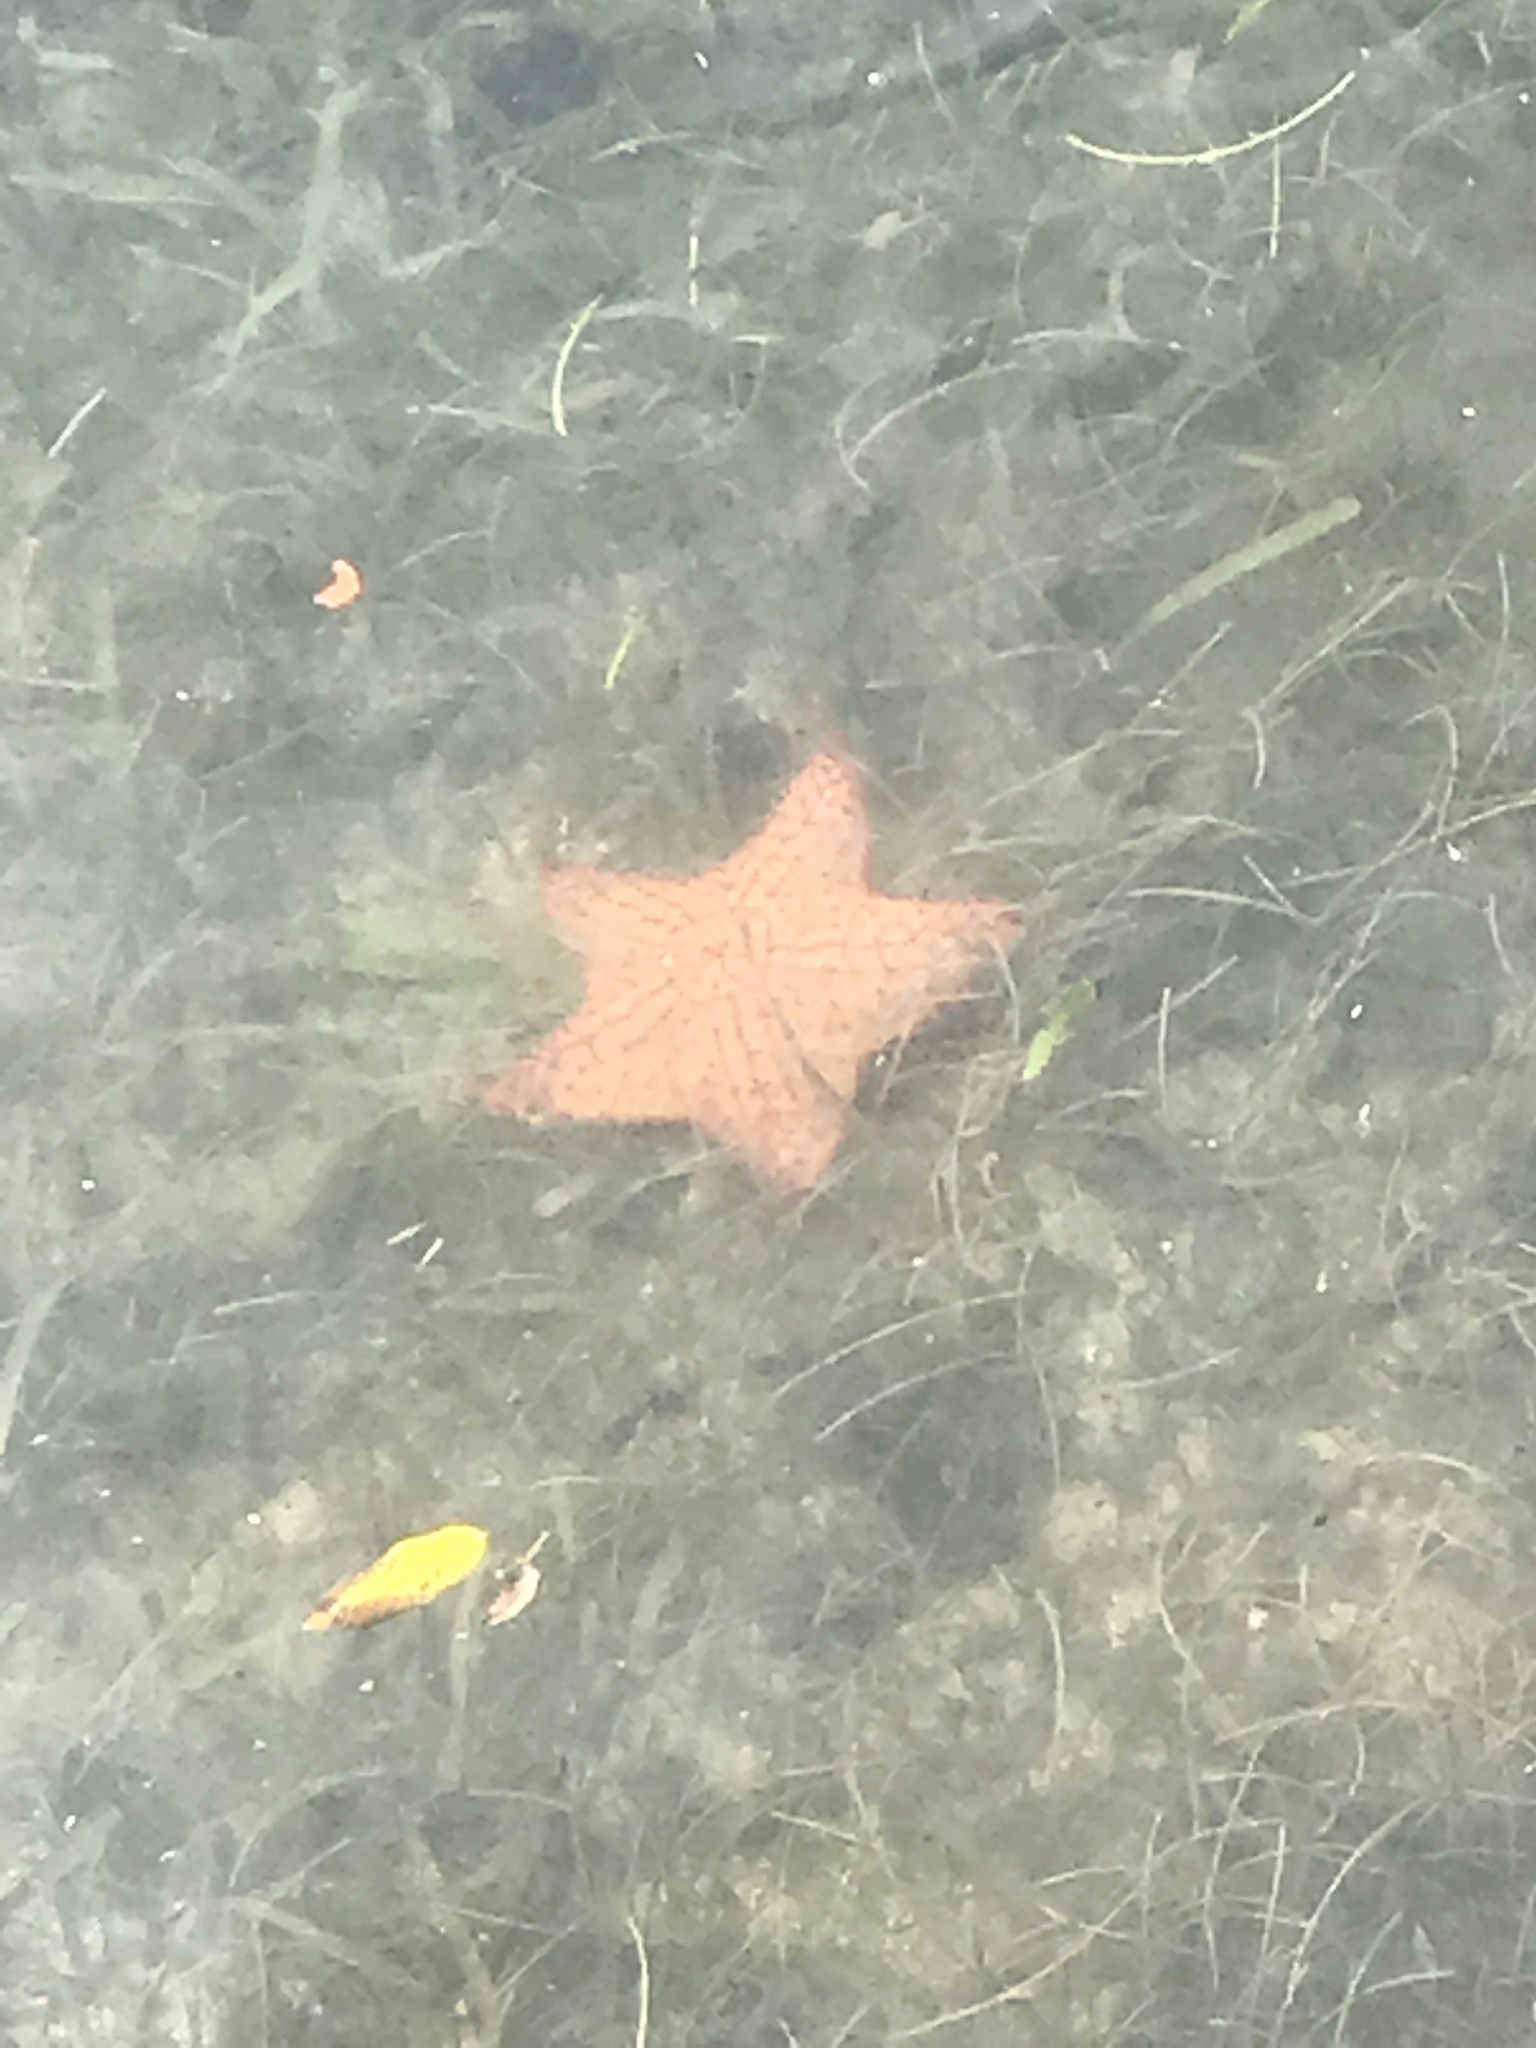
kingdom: Animalia
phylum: Echinodermata
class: Asteroidea
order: Valvatida
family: Oreasteridae
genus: Oreaster
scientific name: Oreaster reticulatus
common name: Cushion sea star
